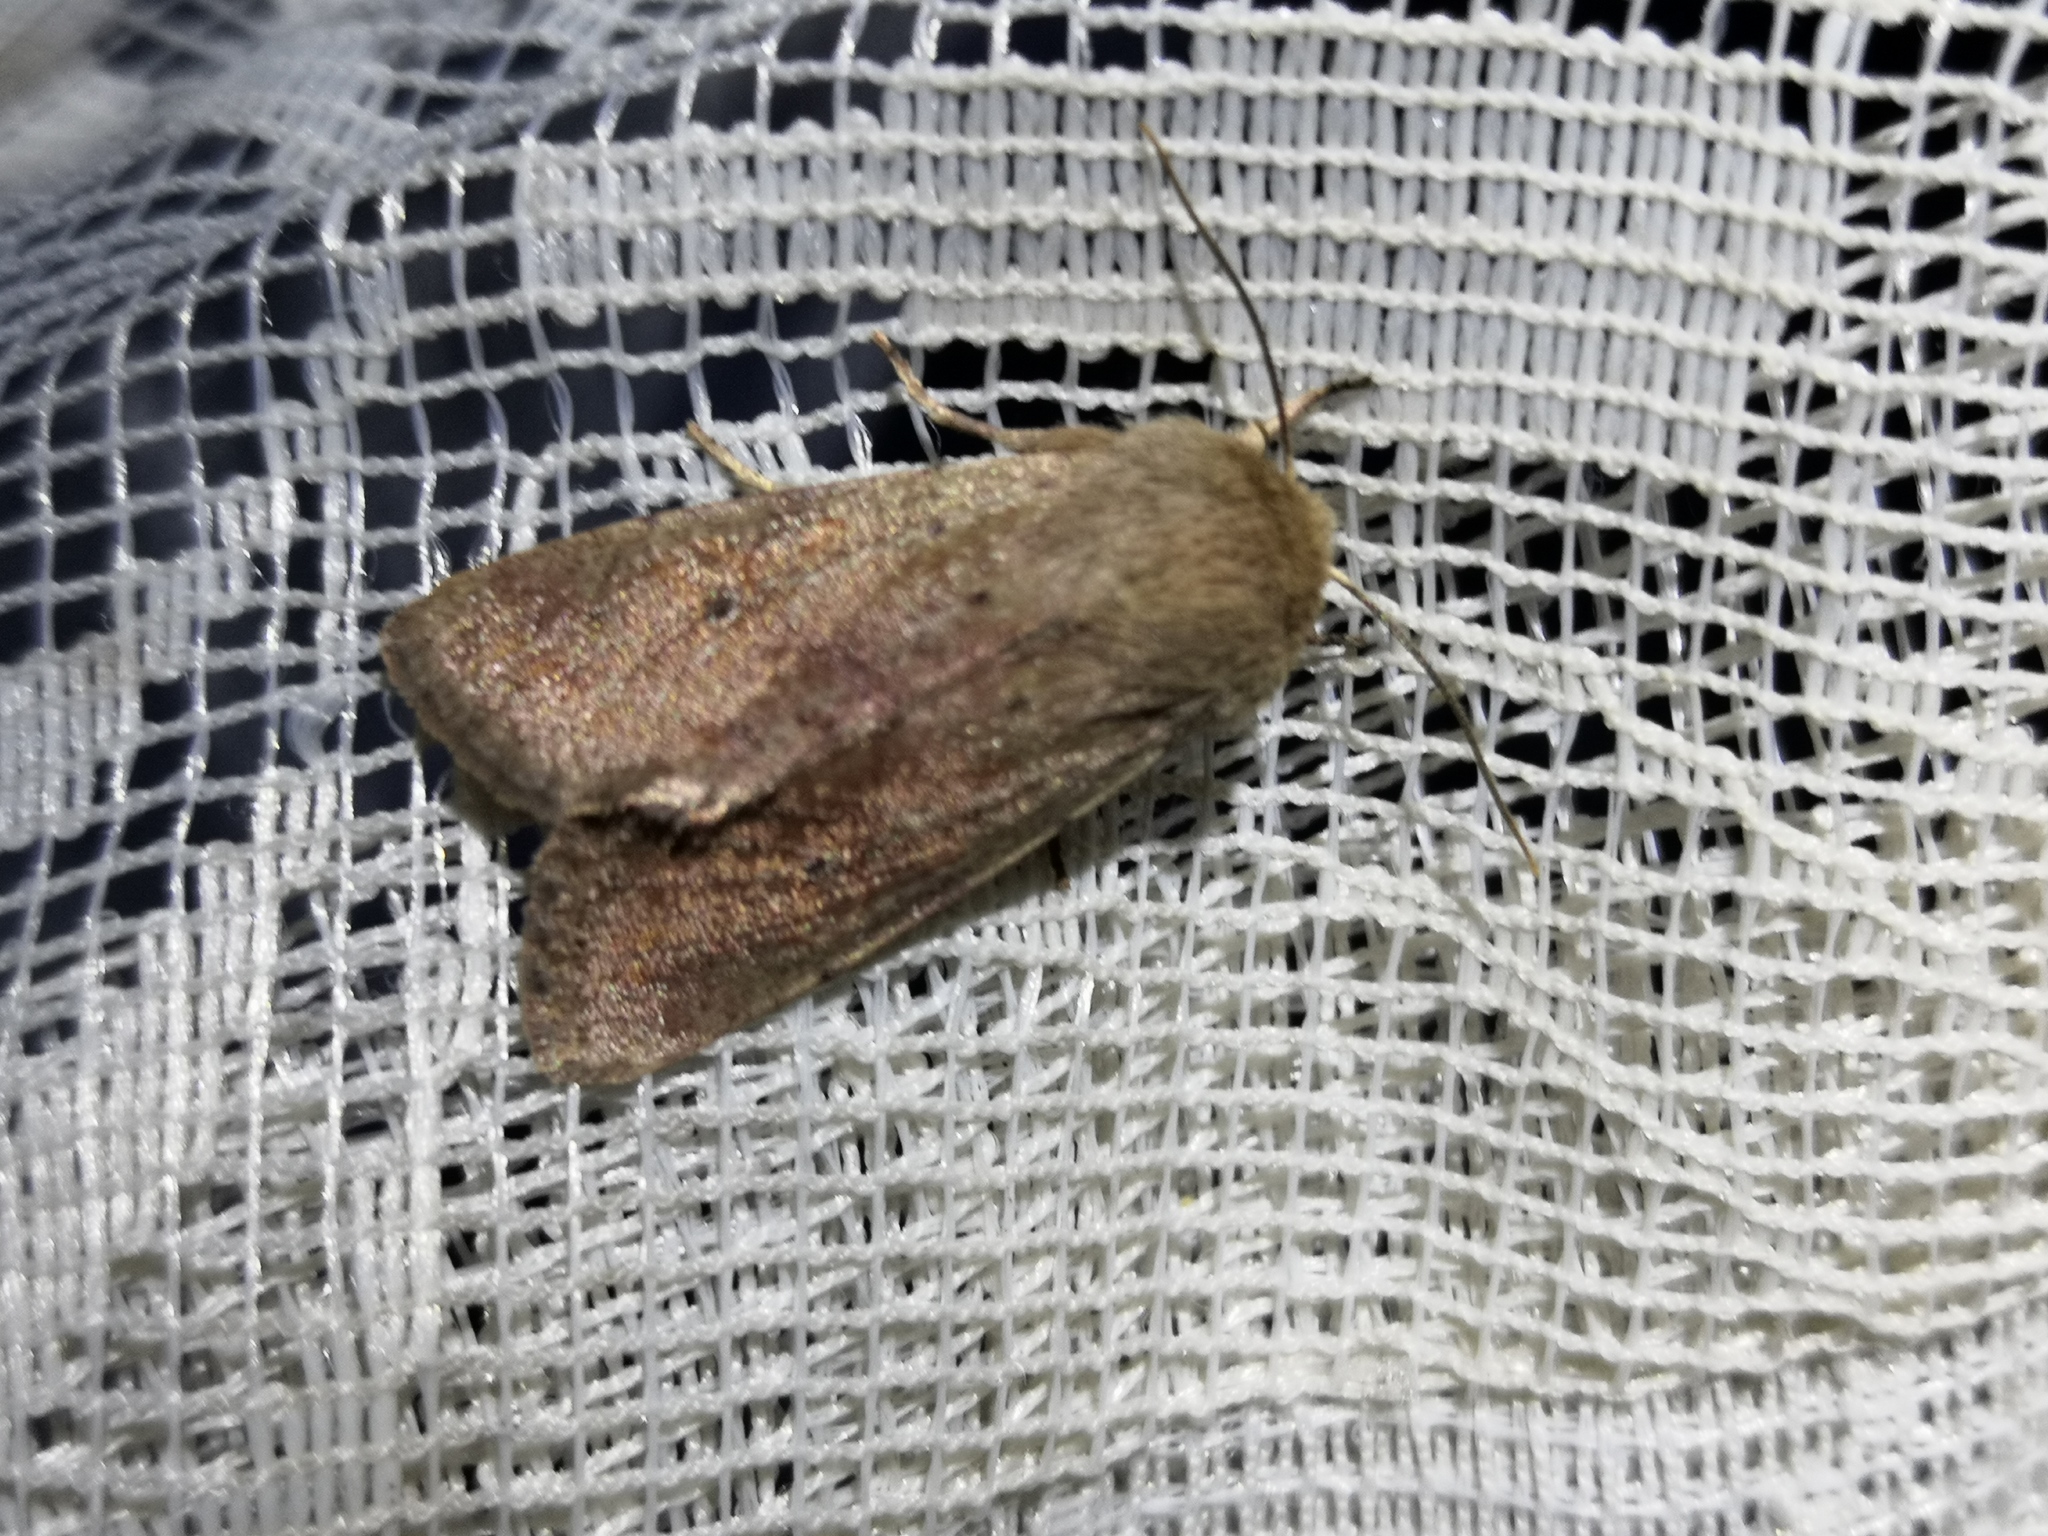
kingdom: Animalia
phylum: Arthropoda
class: Insecta
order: Lepidoptera
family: Noctuidae
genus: Orthosia
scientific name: Orthosia cruda
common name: Small quaker
